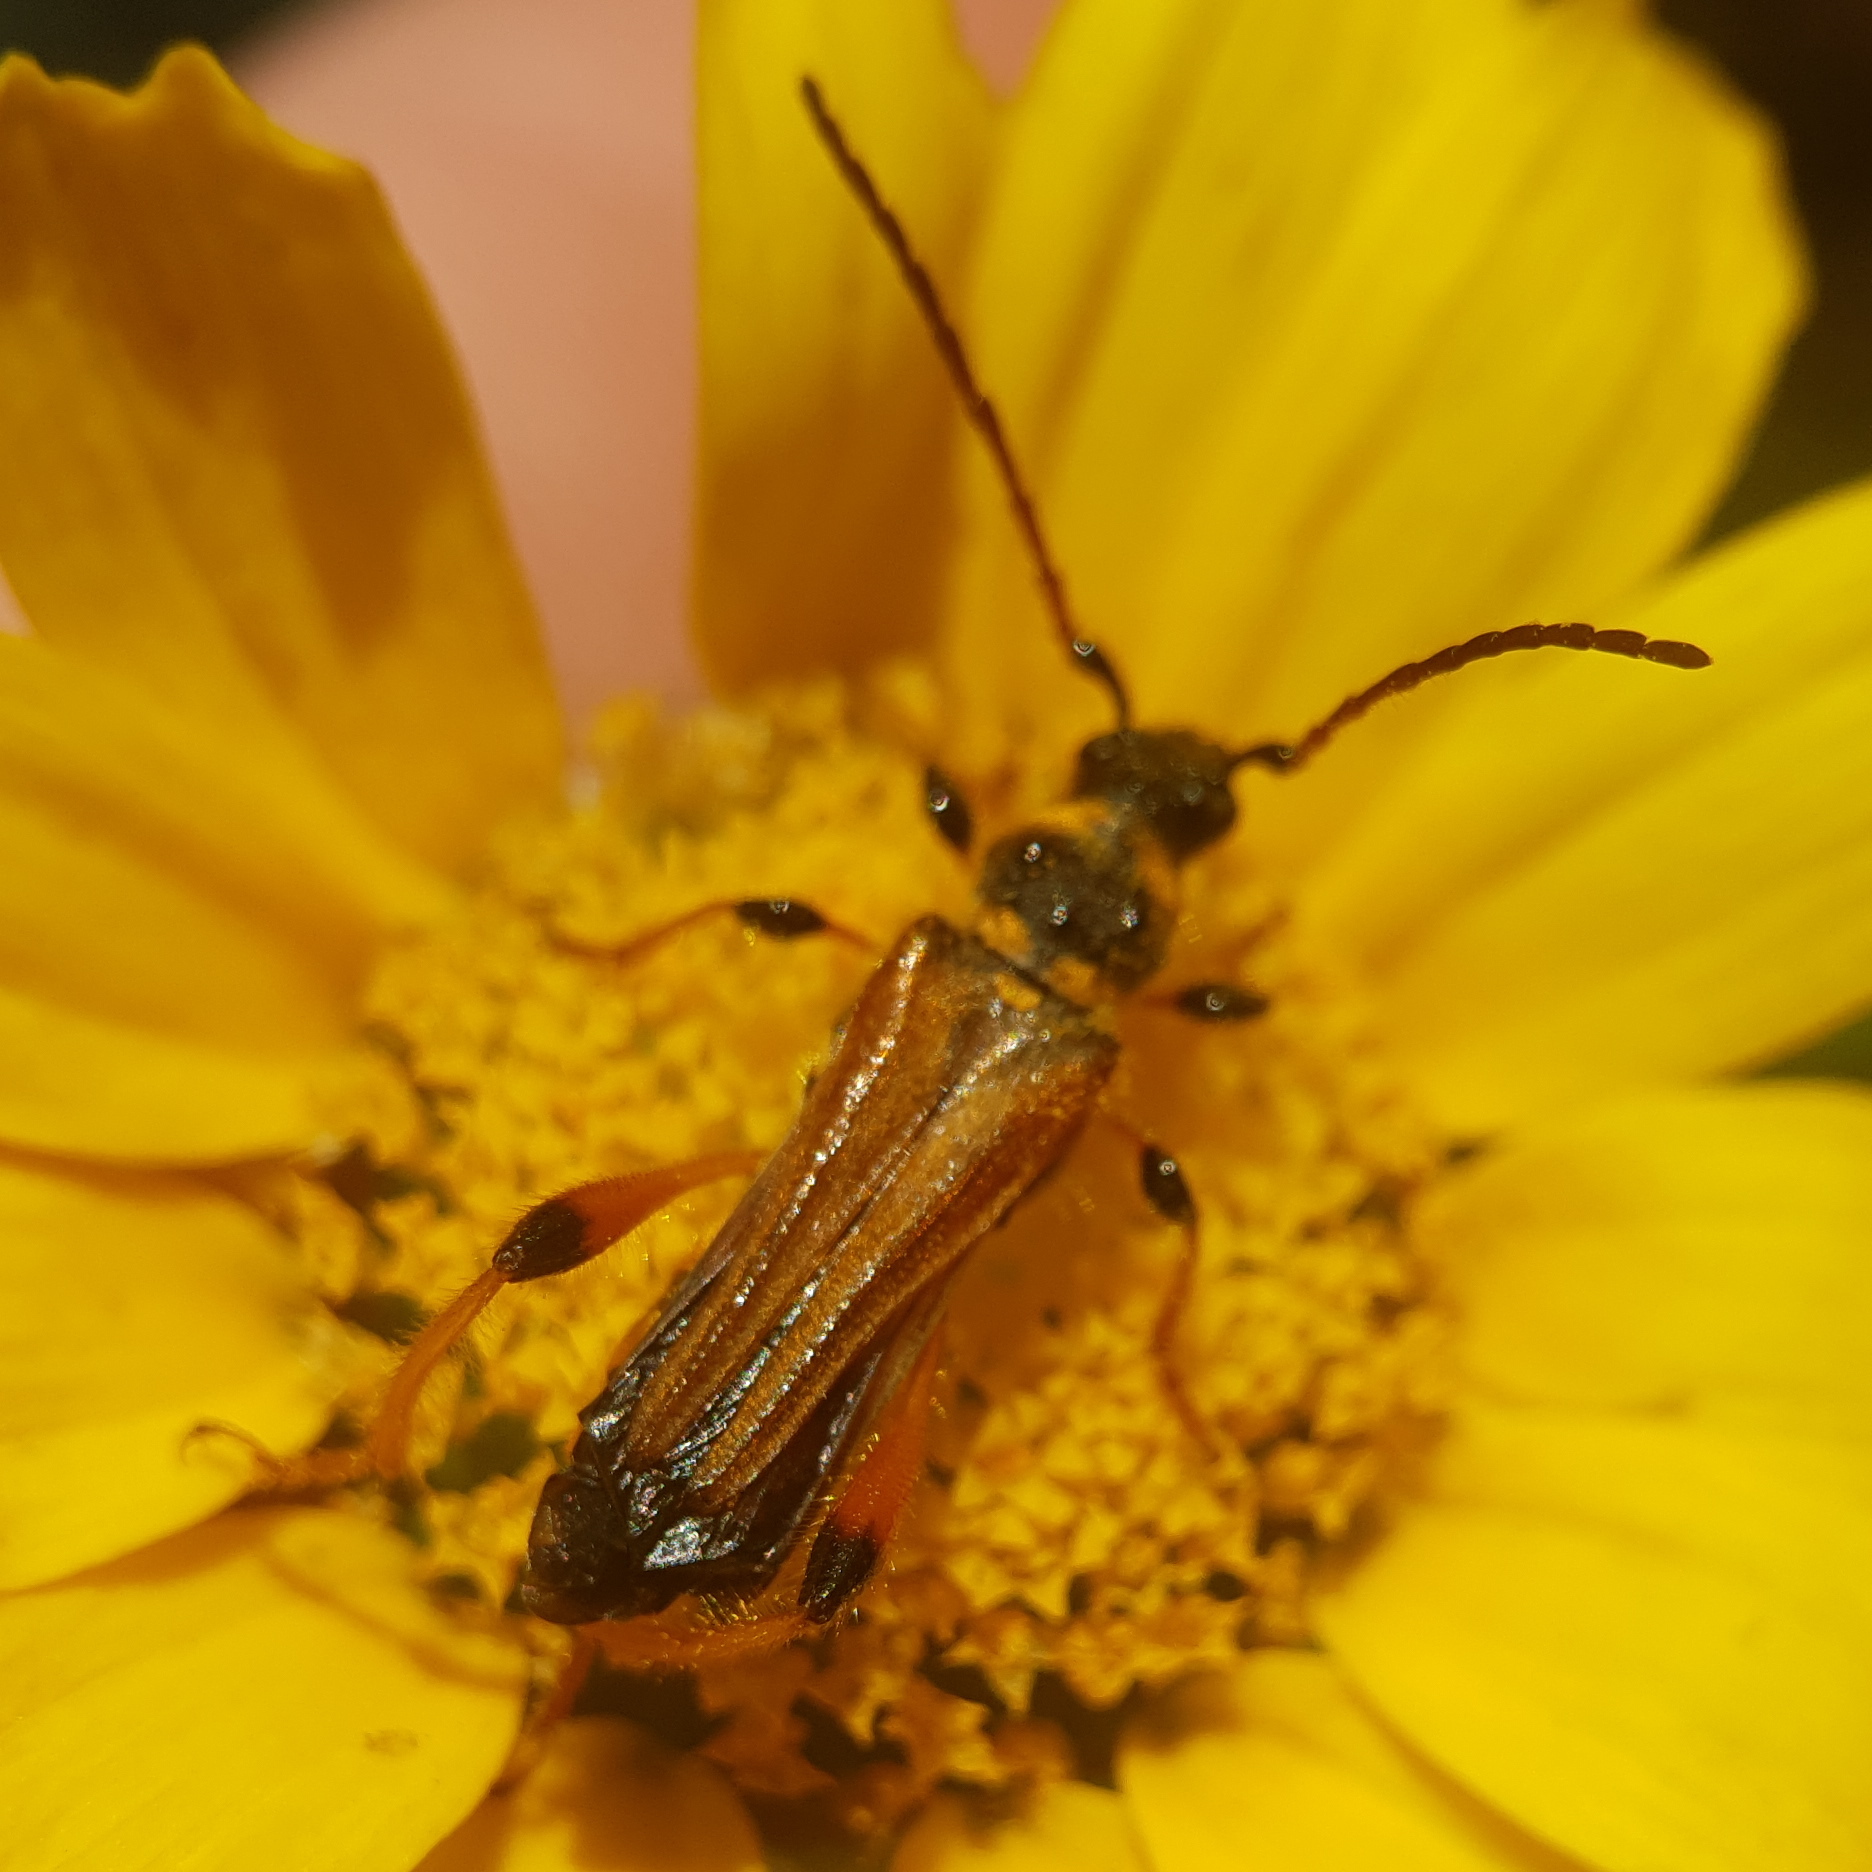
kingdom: Animalia
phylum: Arthropoda
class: Insecta
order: Coleoptera
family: Cerambycidae
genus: Stenopterus
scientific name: Stenopterus rufus
